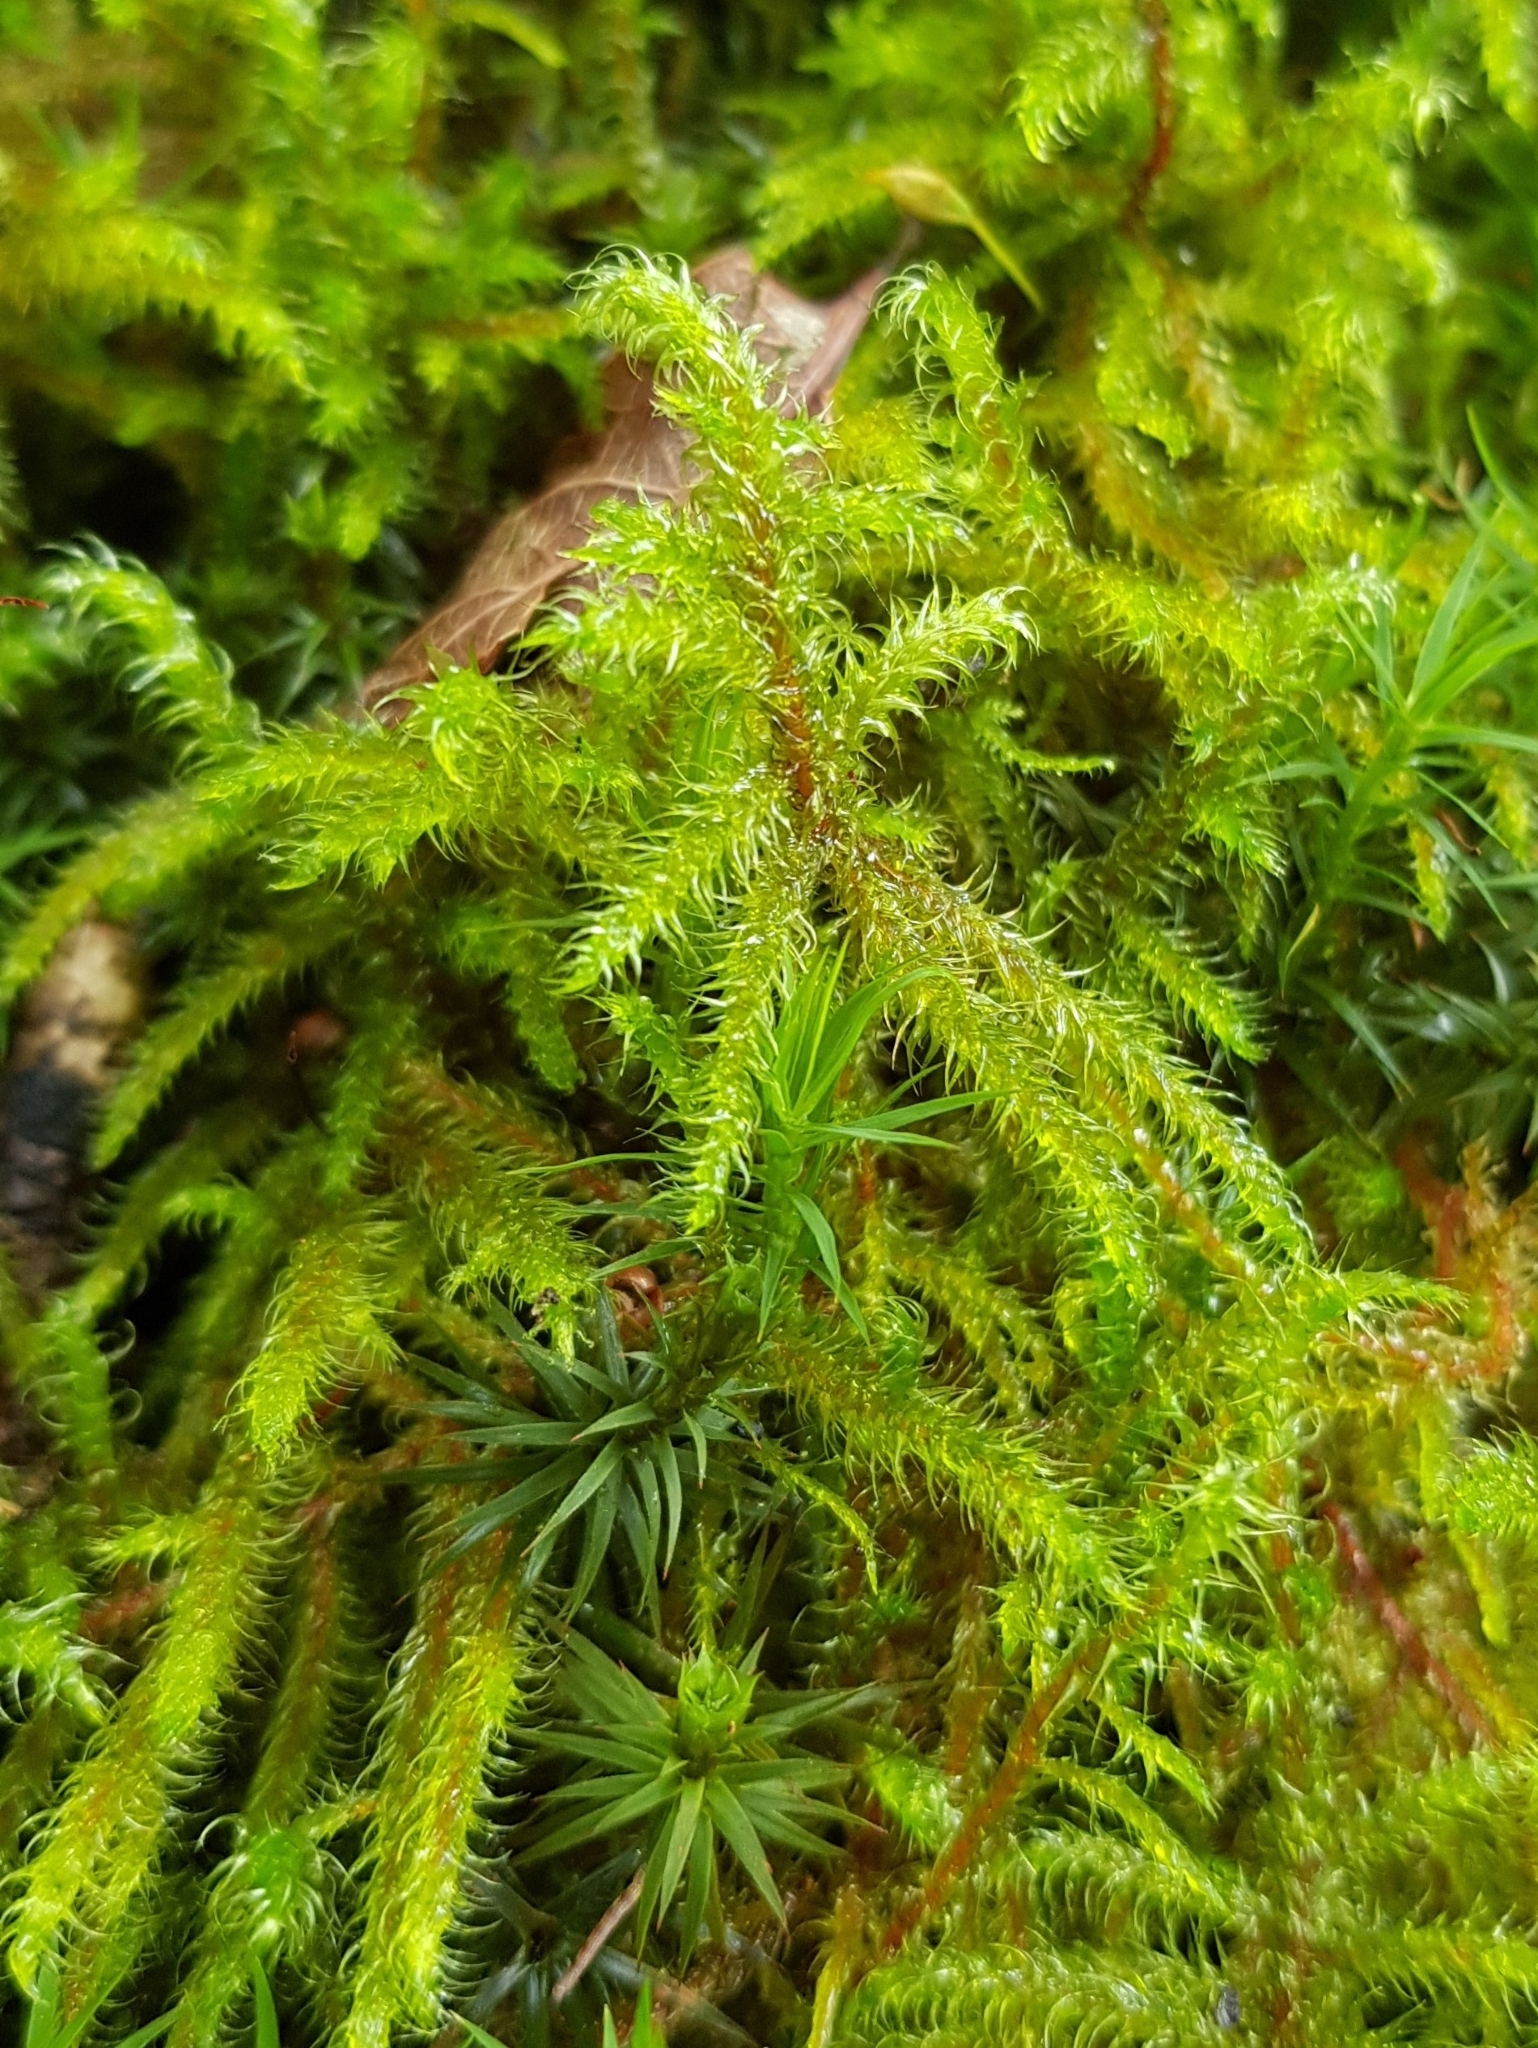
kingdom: Plantae
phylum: Bryophyta
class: Bryopsida
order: Hypnales
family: Hylocomiaceae
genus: Rhytidiadelphus
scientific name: Rhytidiadelphus loreus
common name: Lanky moss
